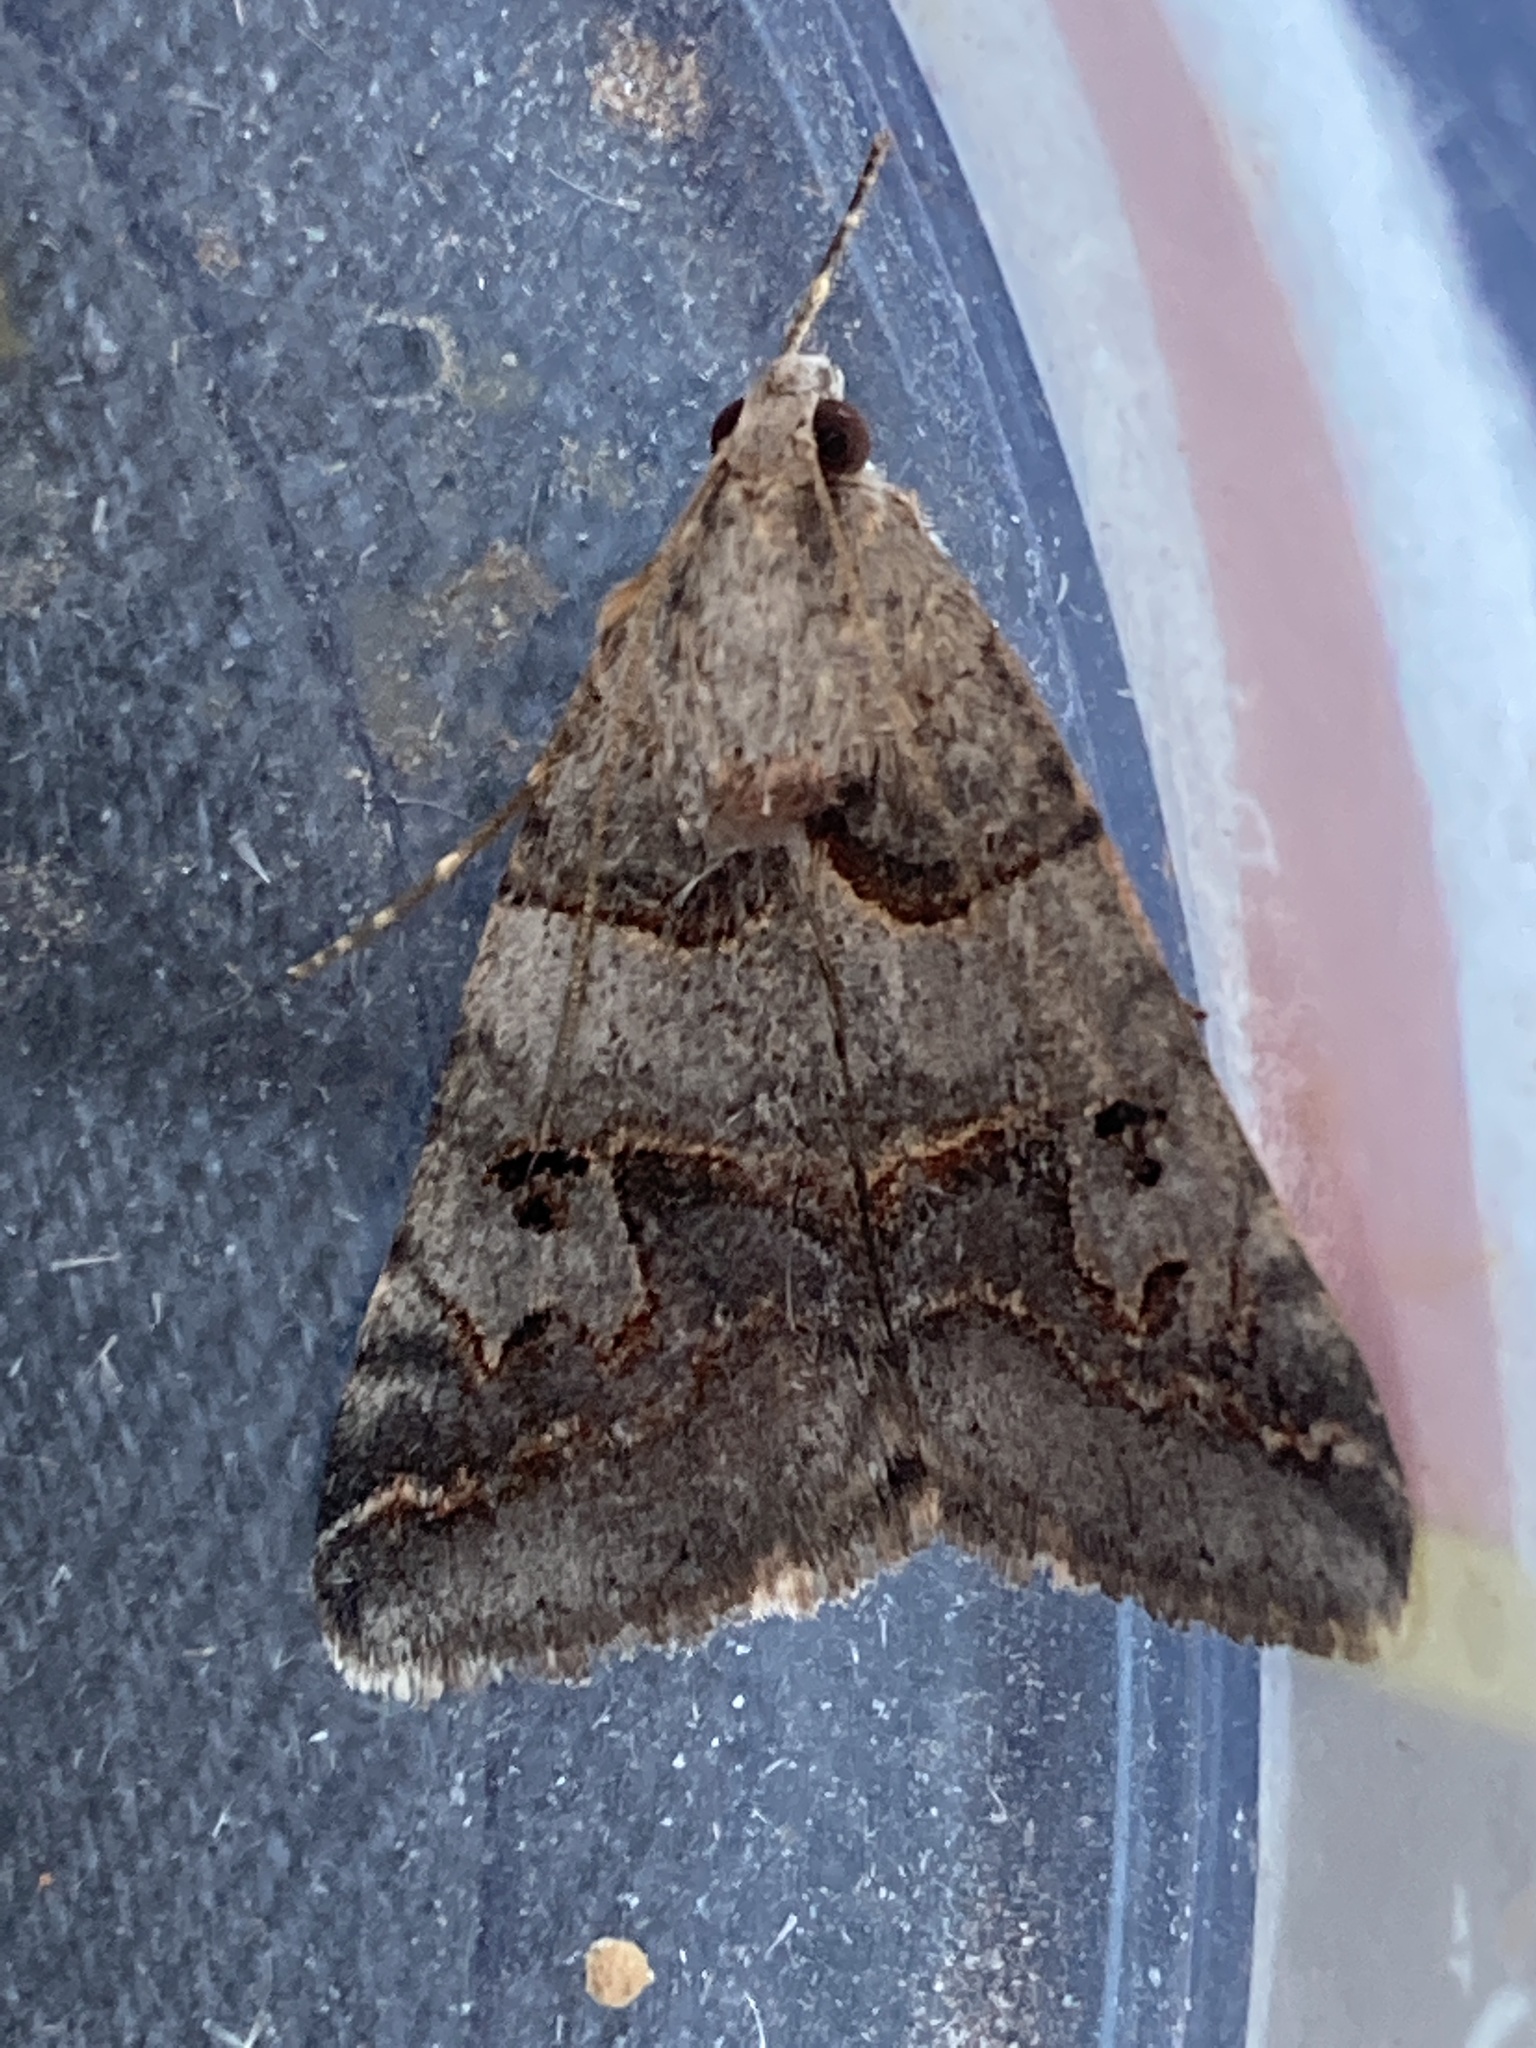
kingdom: Animalia
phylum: Arthropoda
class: Insecta
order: Lepidoptera
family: Erebidae
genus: Drasteria
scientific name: Drasteria ingeniculata
